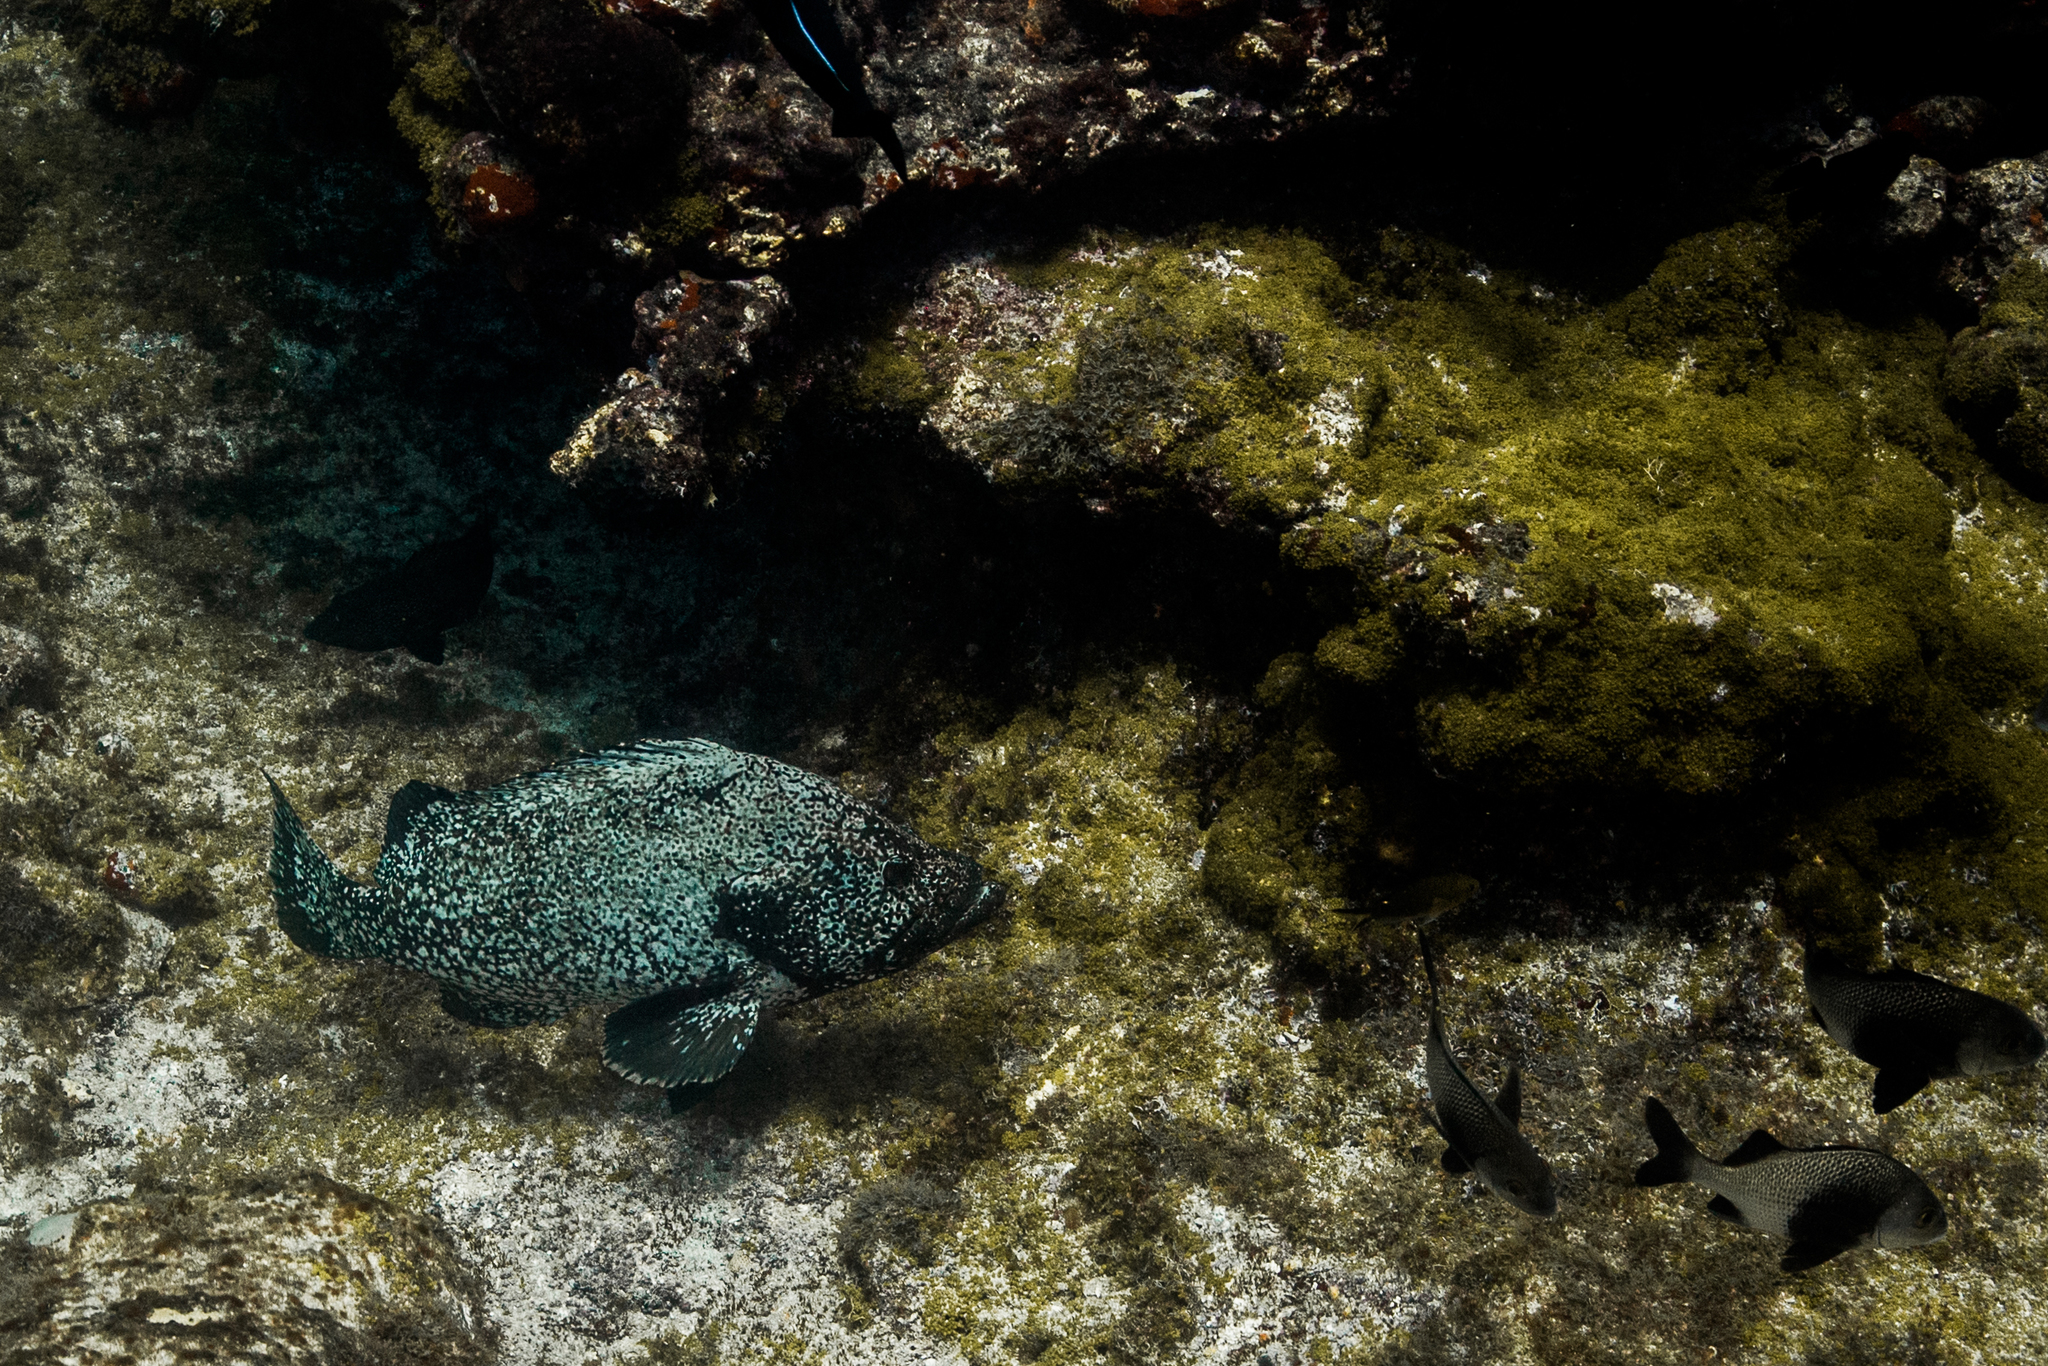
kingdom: Animalia
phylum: Chordata
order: Perciformes
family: Serranidae
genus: Dermatolepis
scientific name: Dermatolepis inermis
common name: Marbled grouper
